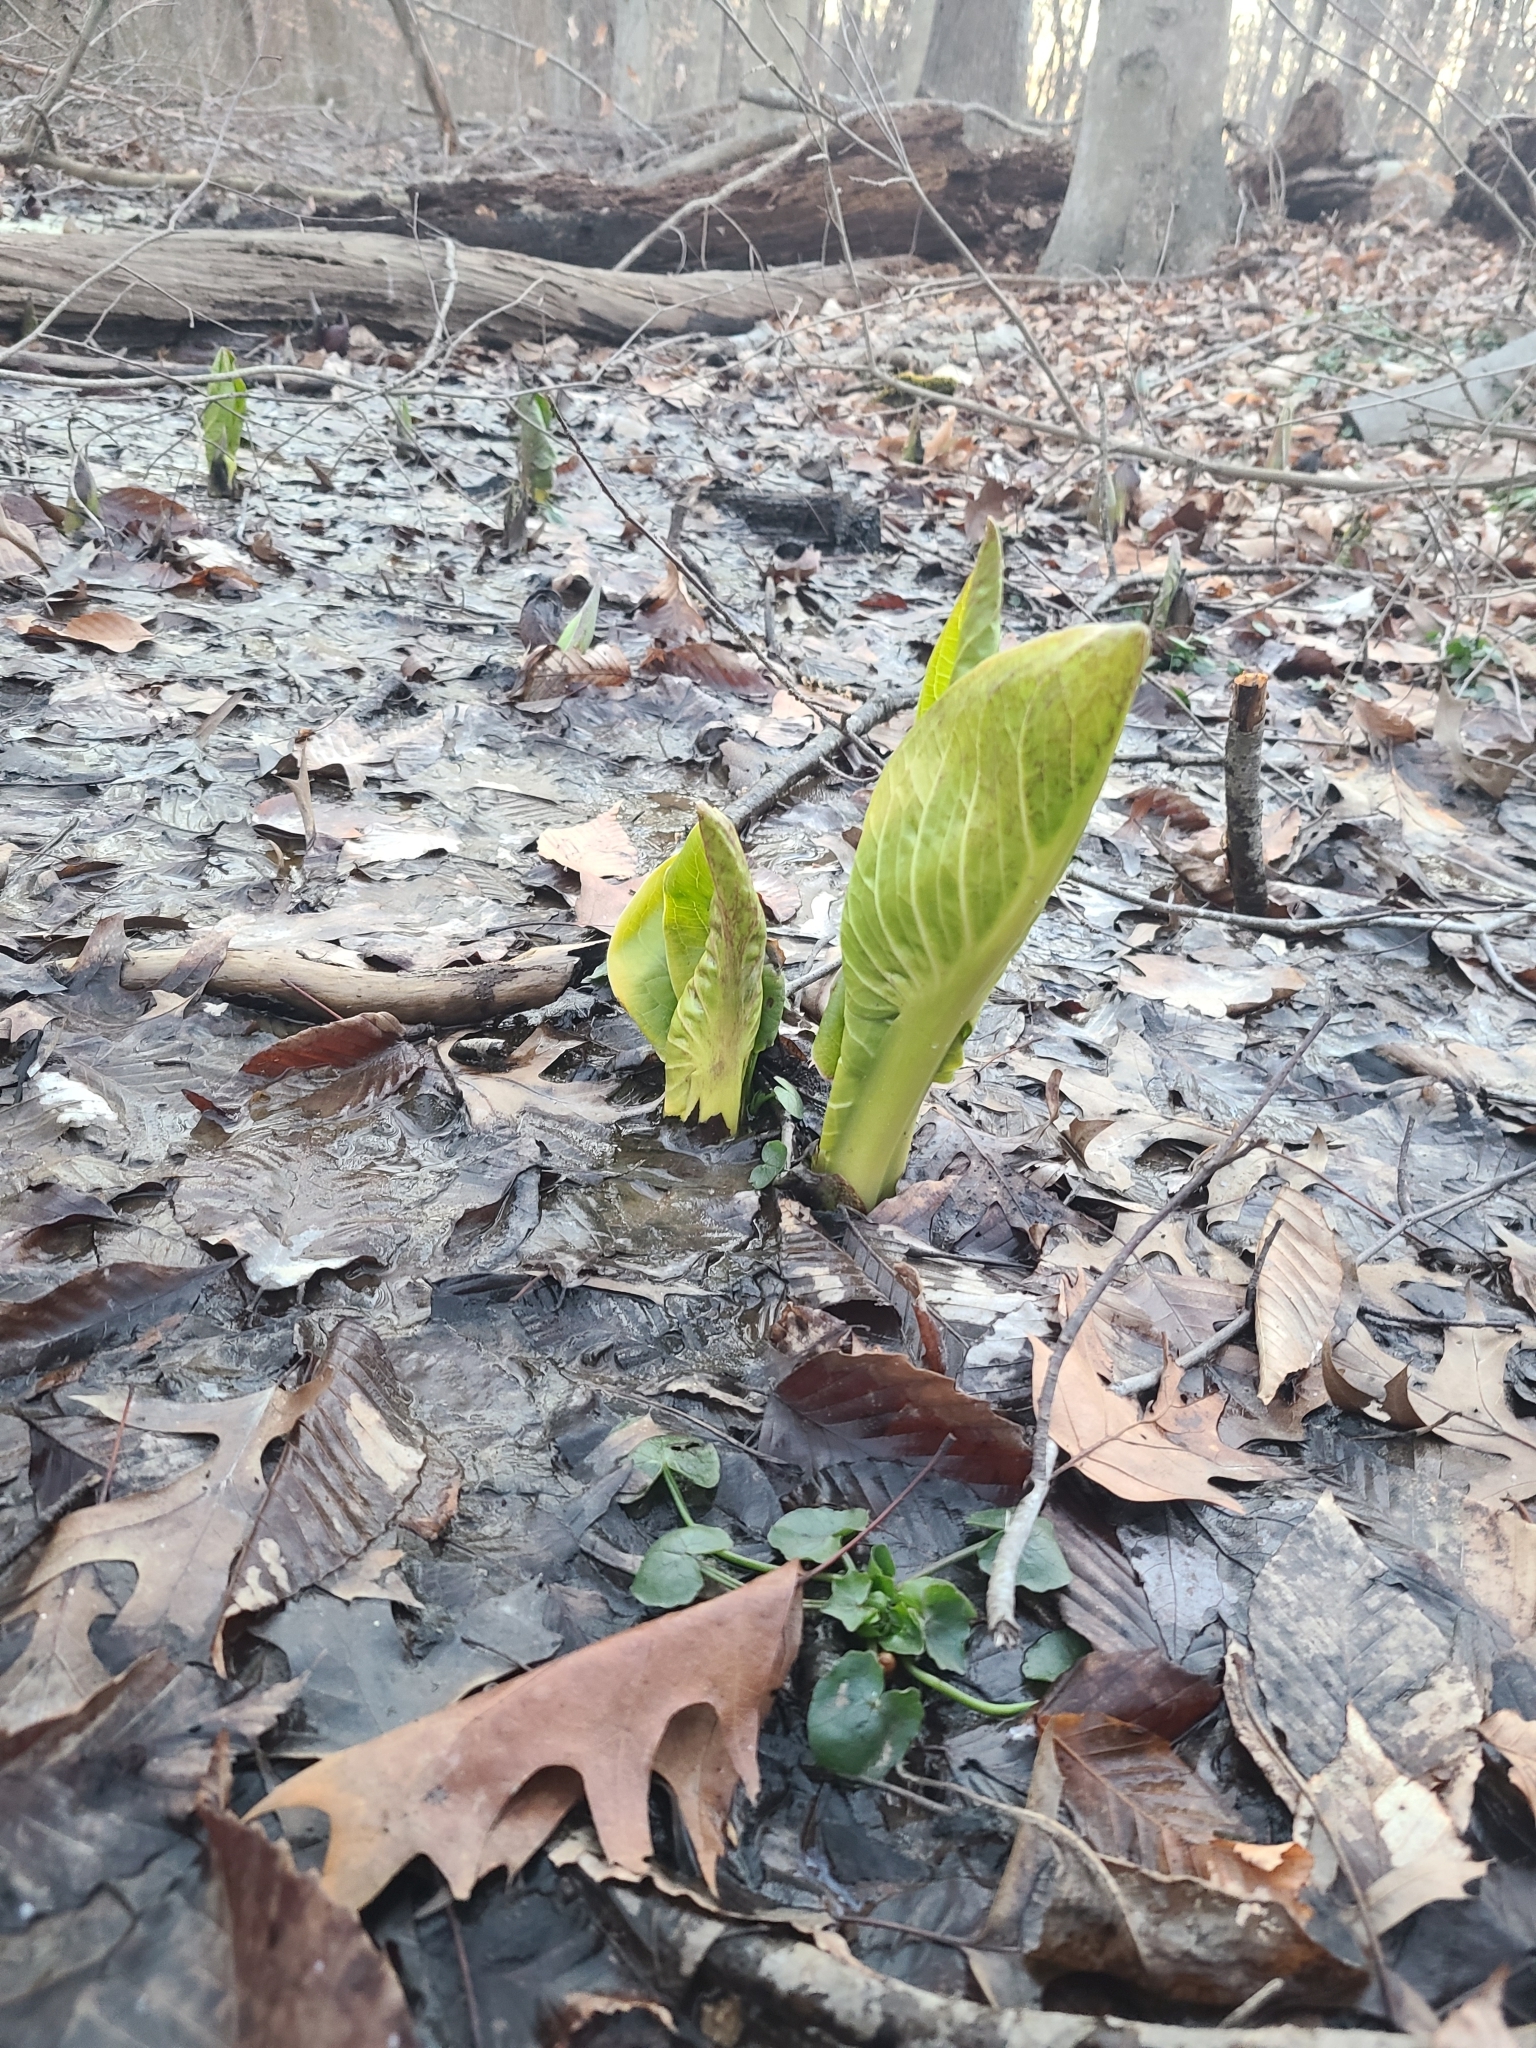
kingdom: Plantae
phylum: Tracheophyta
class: Liliopsida
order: Alismatales
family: Araceae
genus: Symplocarpus
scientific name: Symplocarpus foetidus
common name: Eastern skunk cabbage
